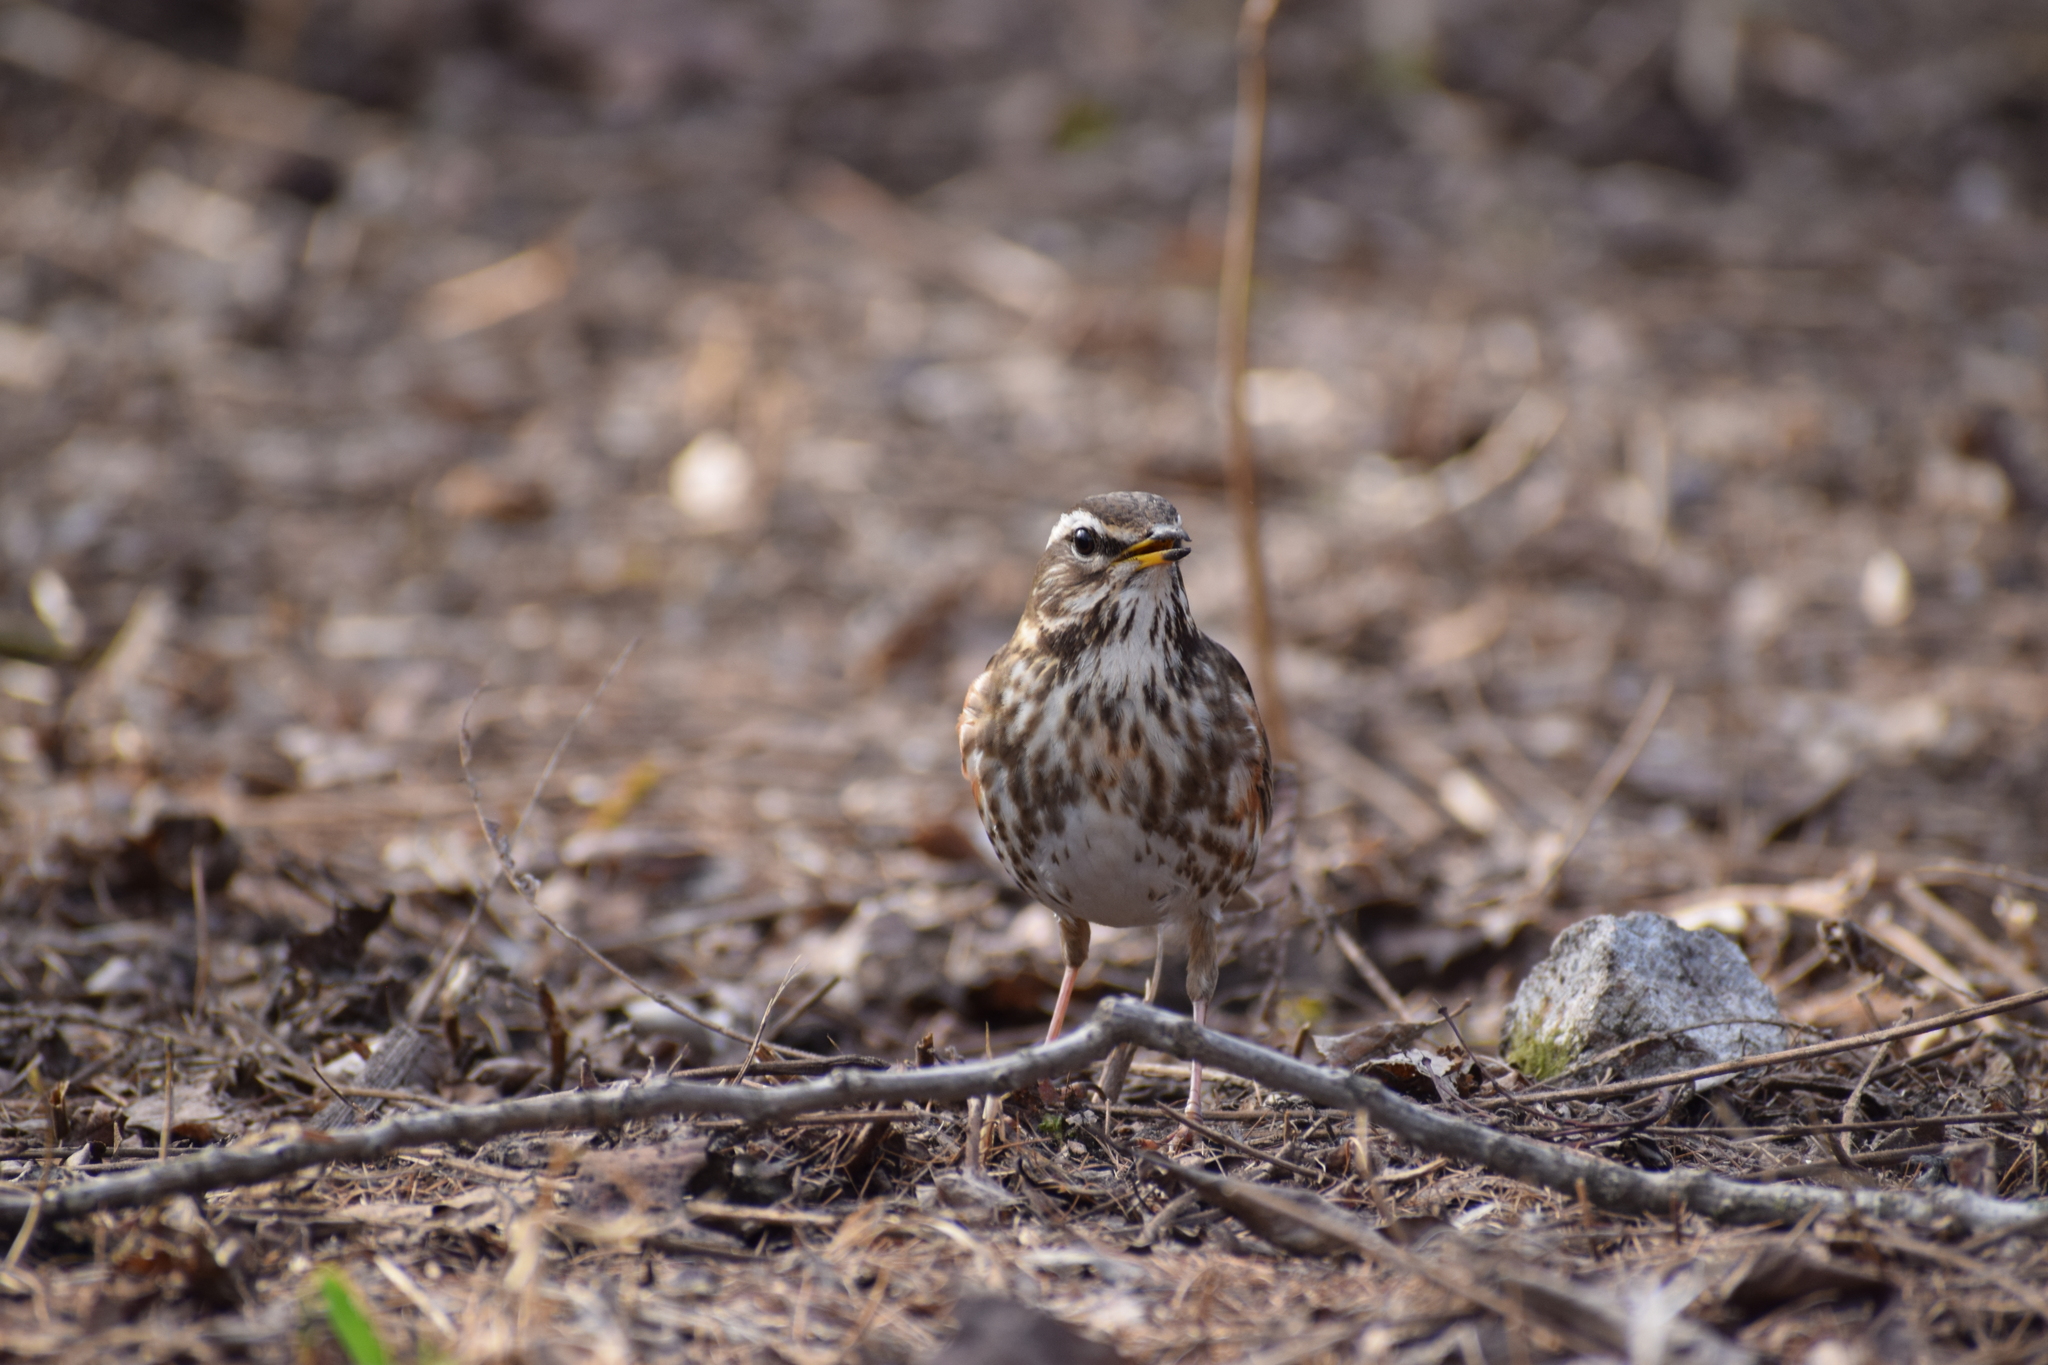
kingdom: Animalia
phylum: Chordata
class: Aves
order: Passeriformes
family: Turdidae
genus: Turdus
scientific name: Turdus iliacus
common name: Redwing
